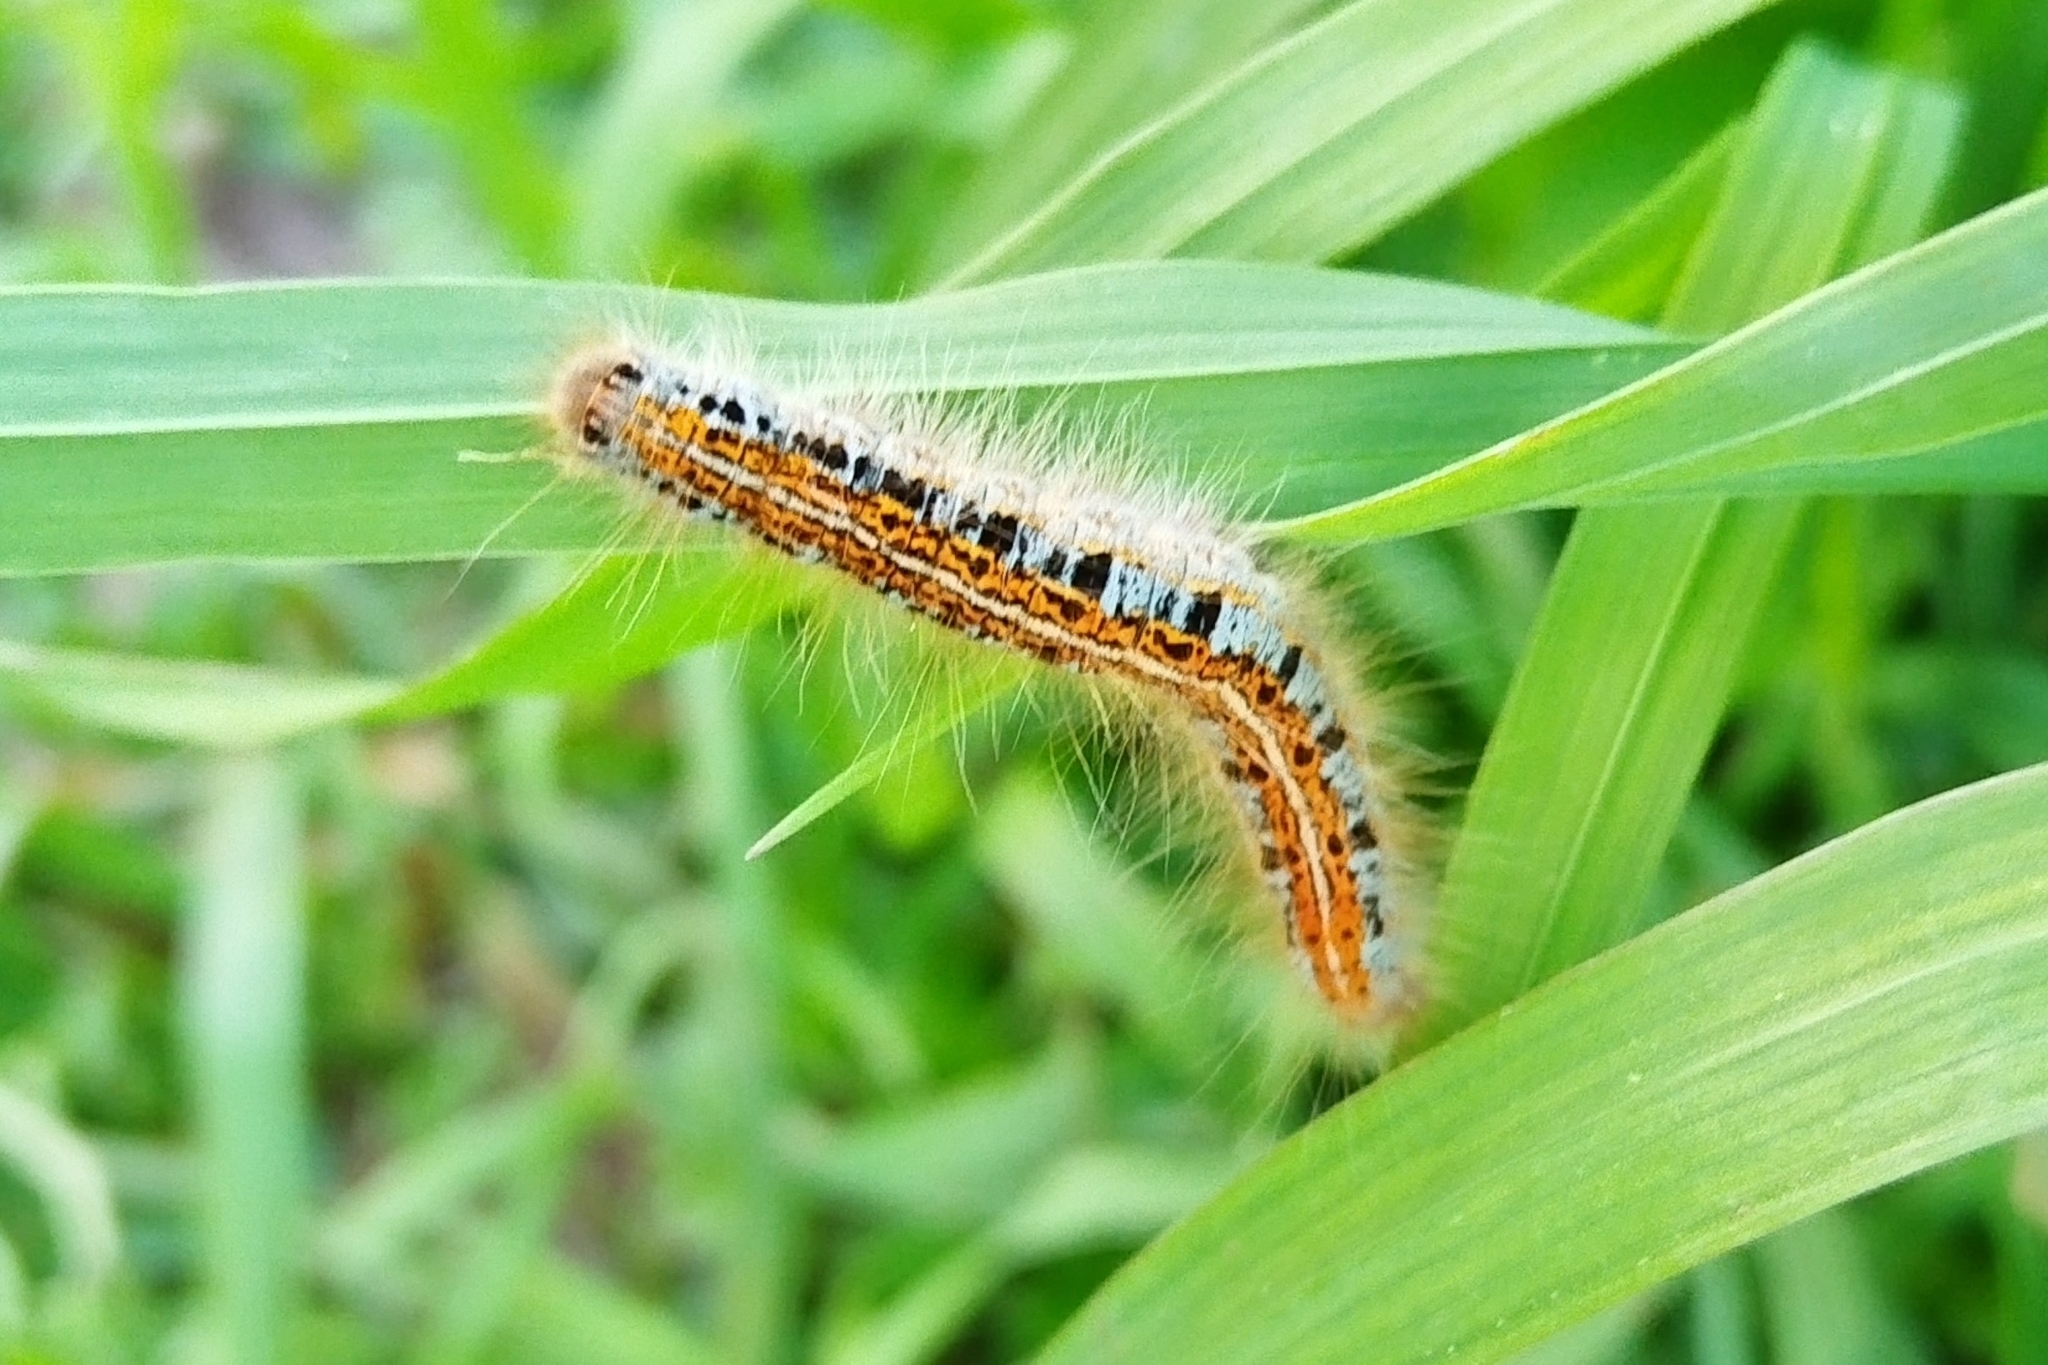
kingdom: Animalia
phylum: Arthropoda
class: Insecta
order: Lepidoptera
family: Lasiocampidae
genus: Malacosoma
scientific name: Malacosoma castrense
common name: Ground lackey
